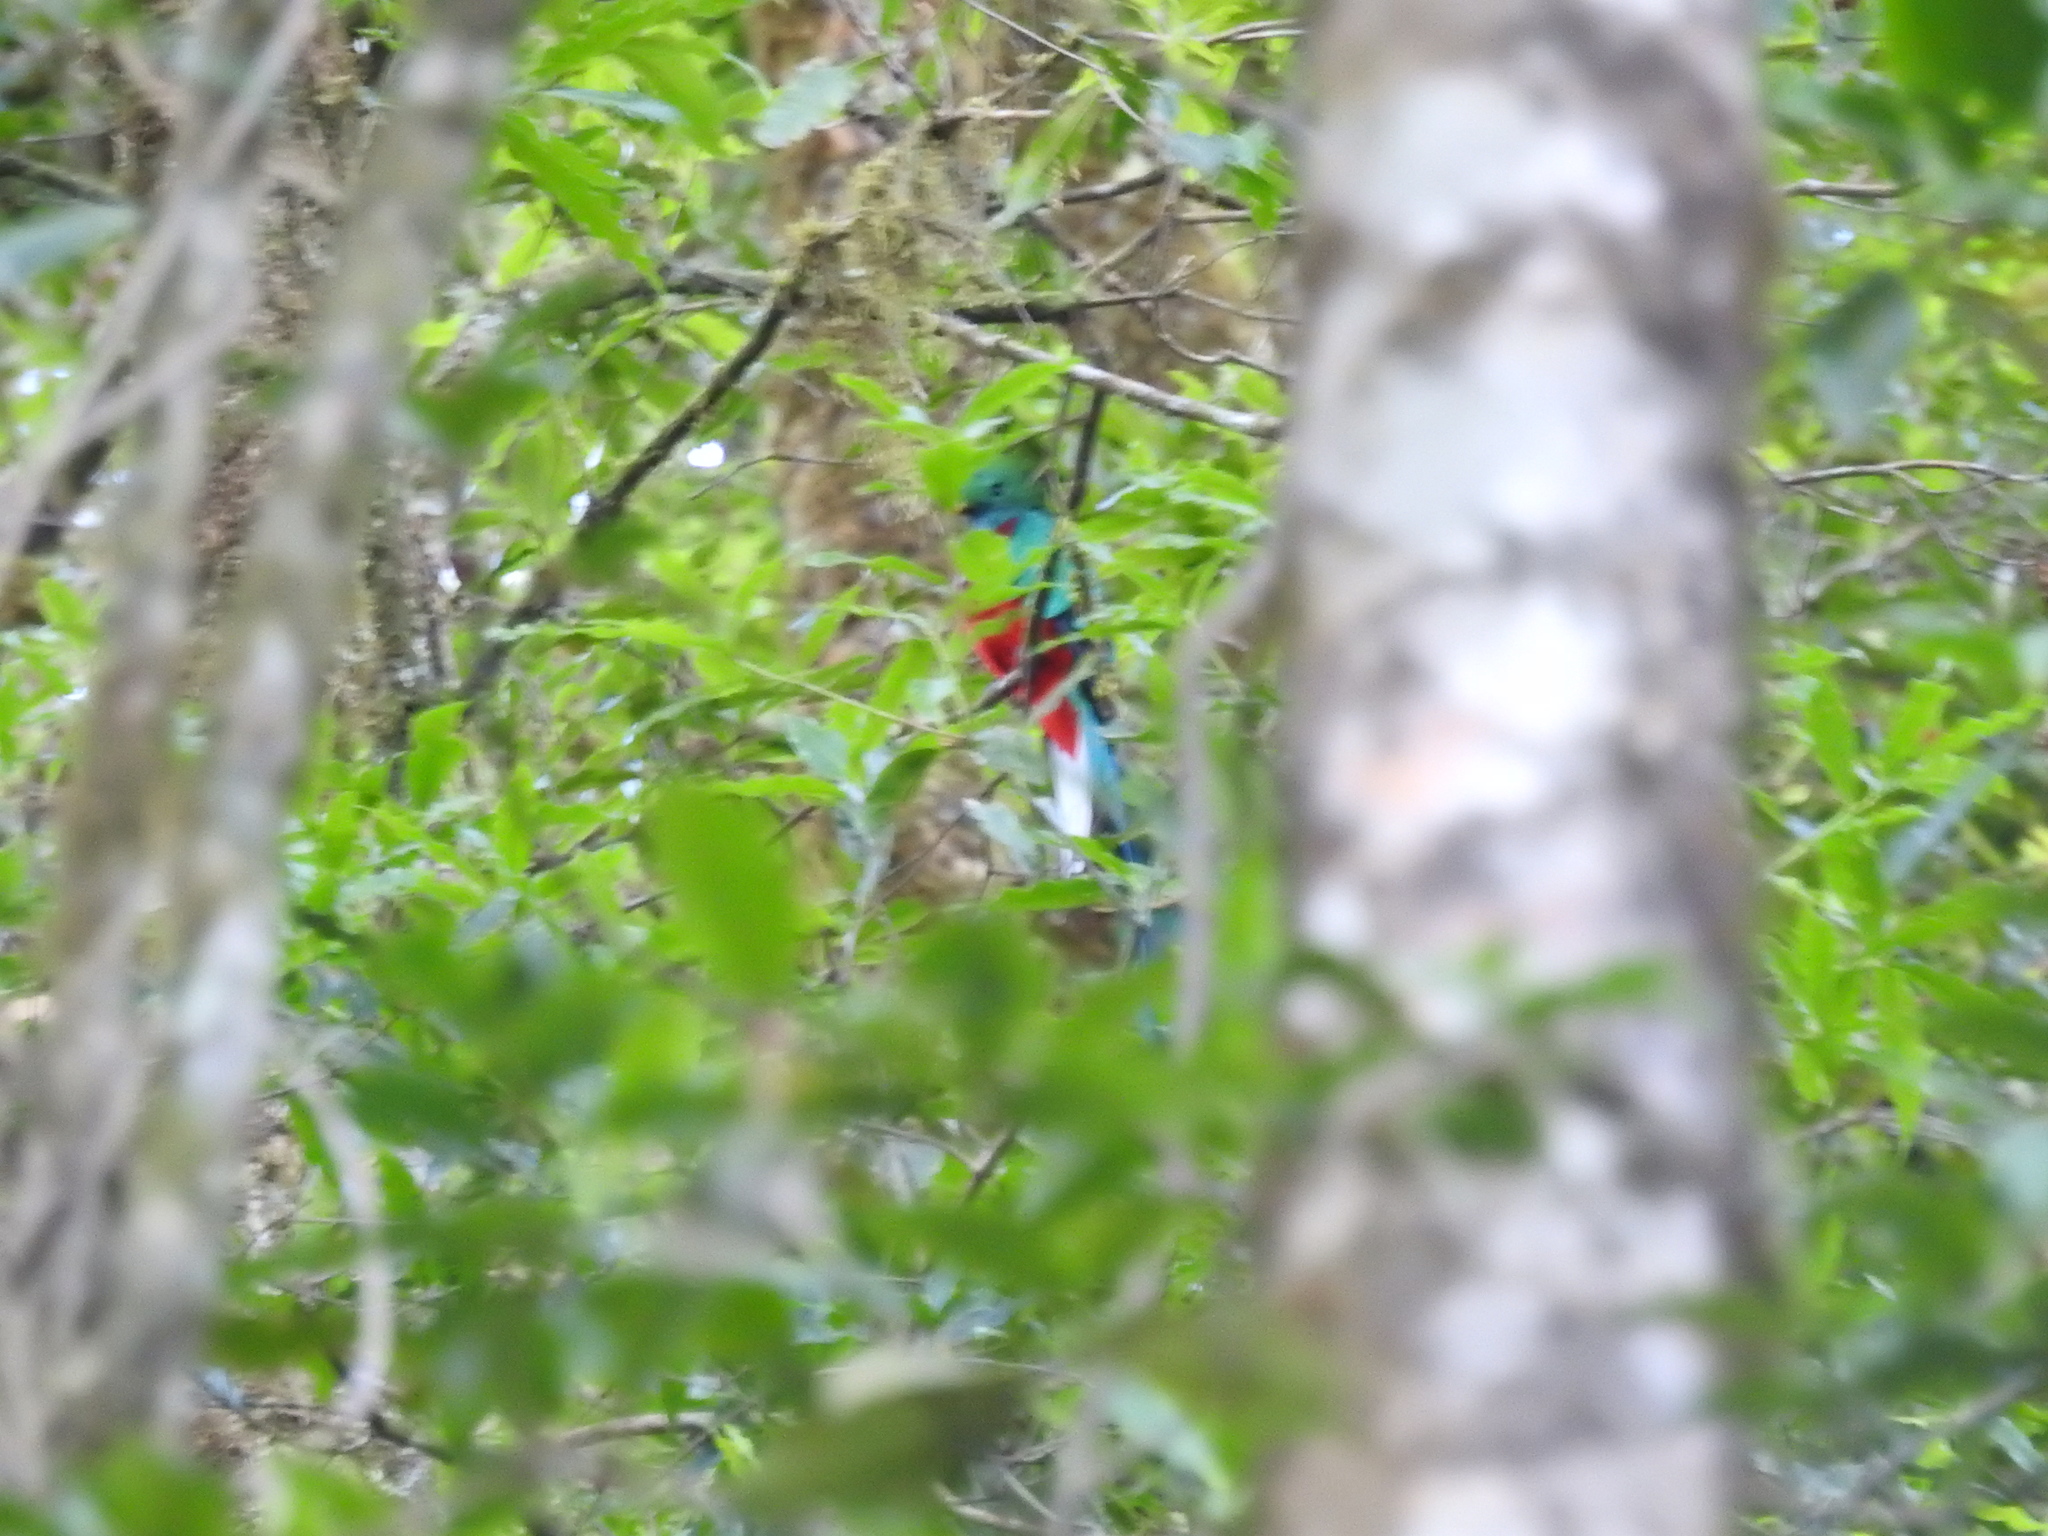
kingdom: Animalia
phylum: Chordata
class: Aves
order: Trogoniformes
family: Trogonidae
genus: Pharomachrus
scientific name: Pharomachrus mocinno
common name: Resplendent quetzal
